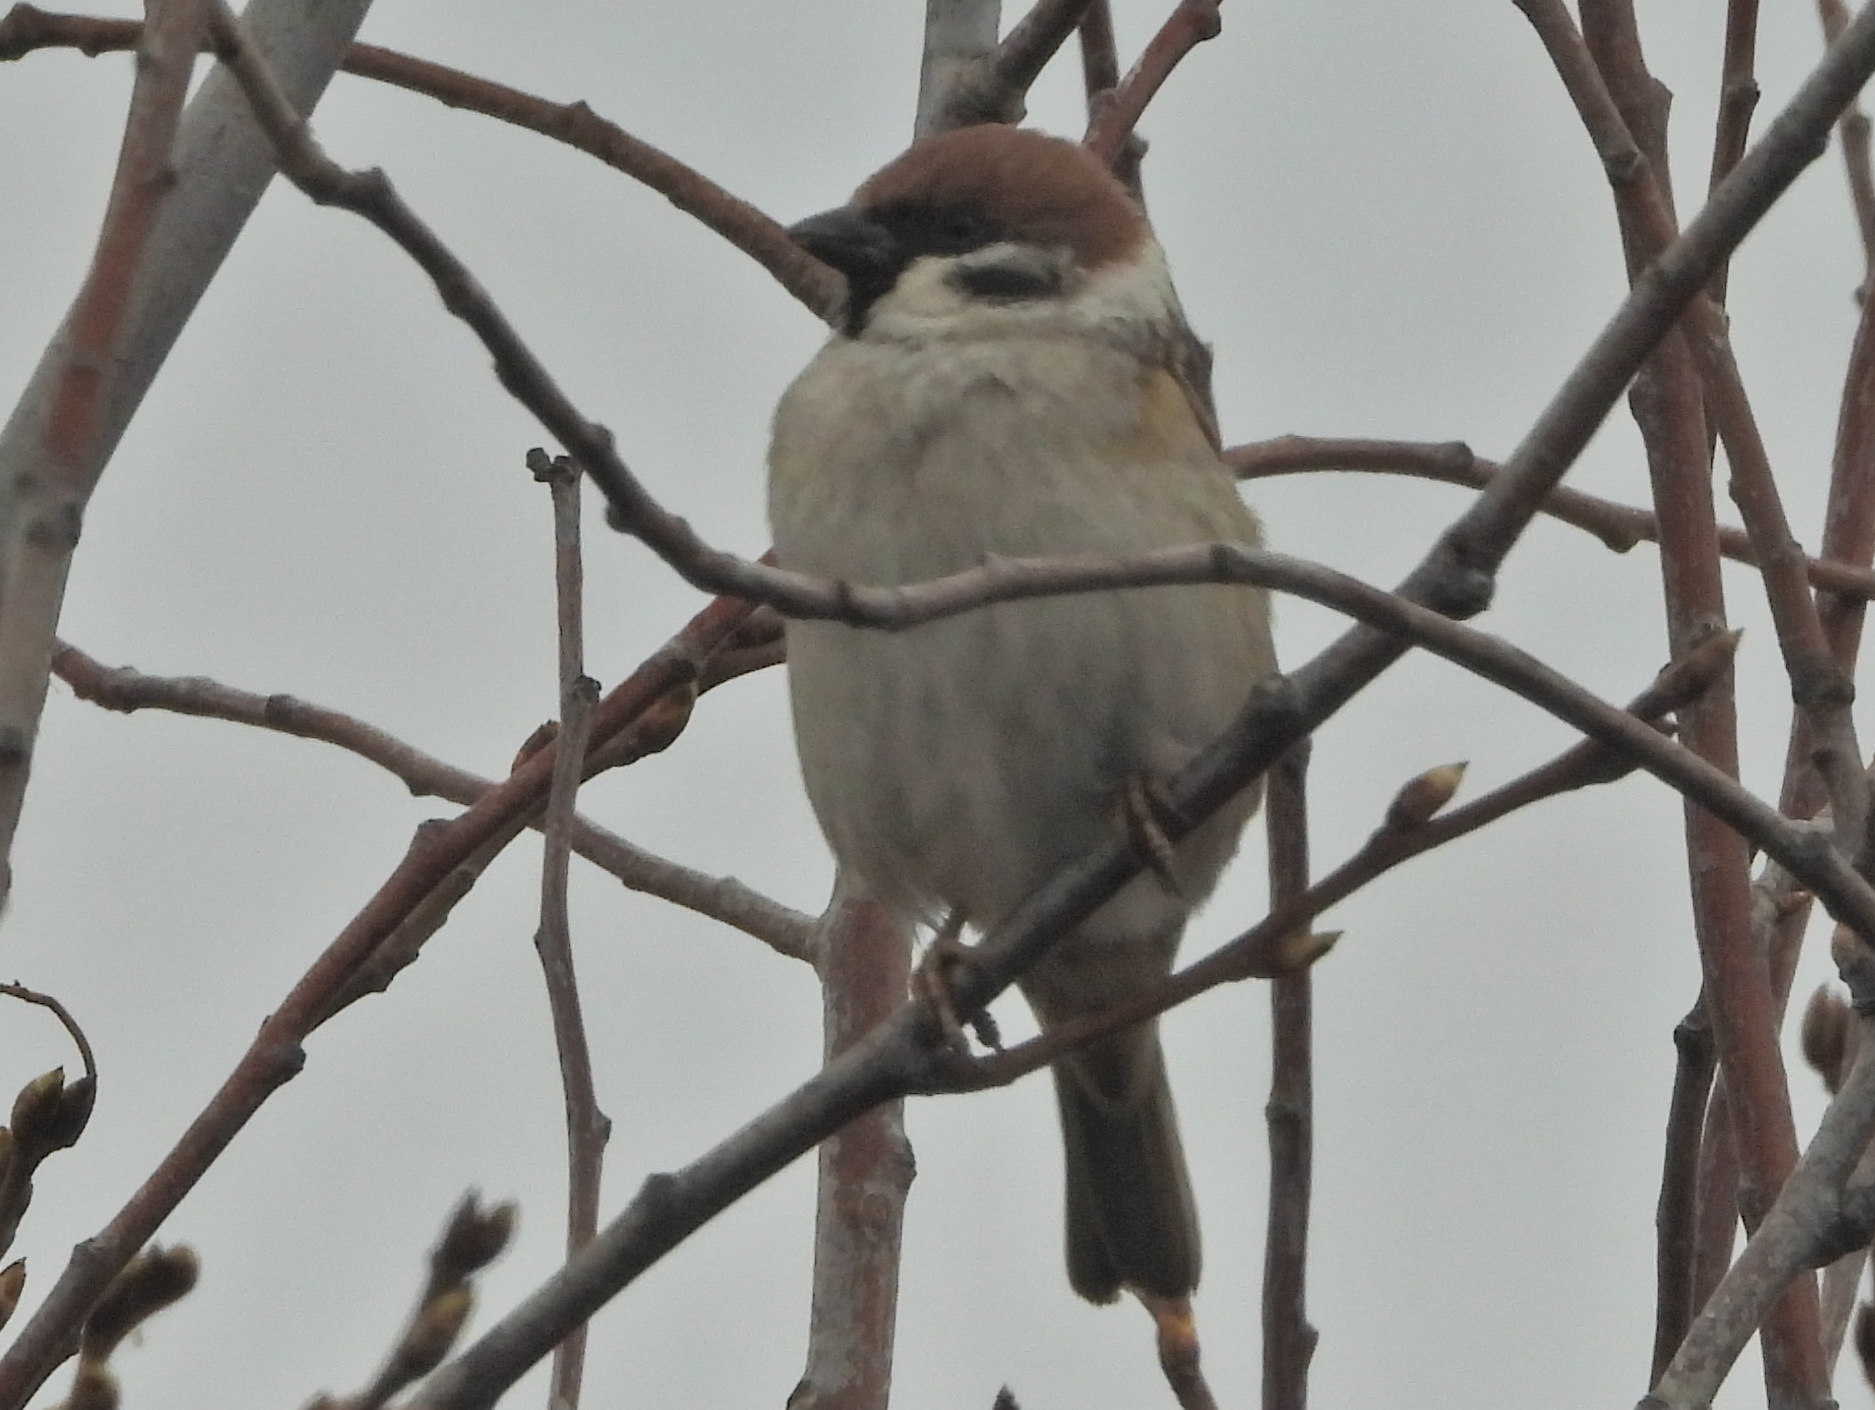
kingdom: Animalia
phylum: Chordata
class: Aves
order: Passeriformes
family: Passeridae
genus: Passer
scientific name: Passer montanus
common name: Eurasian tree sparrow
